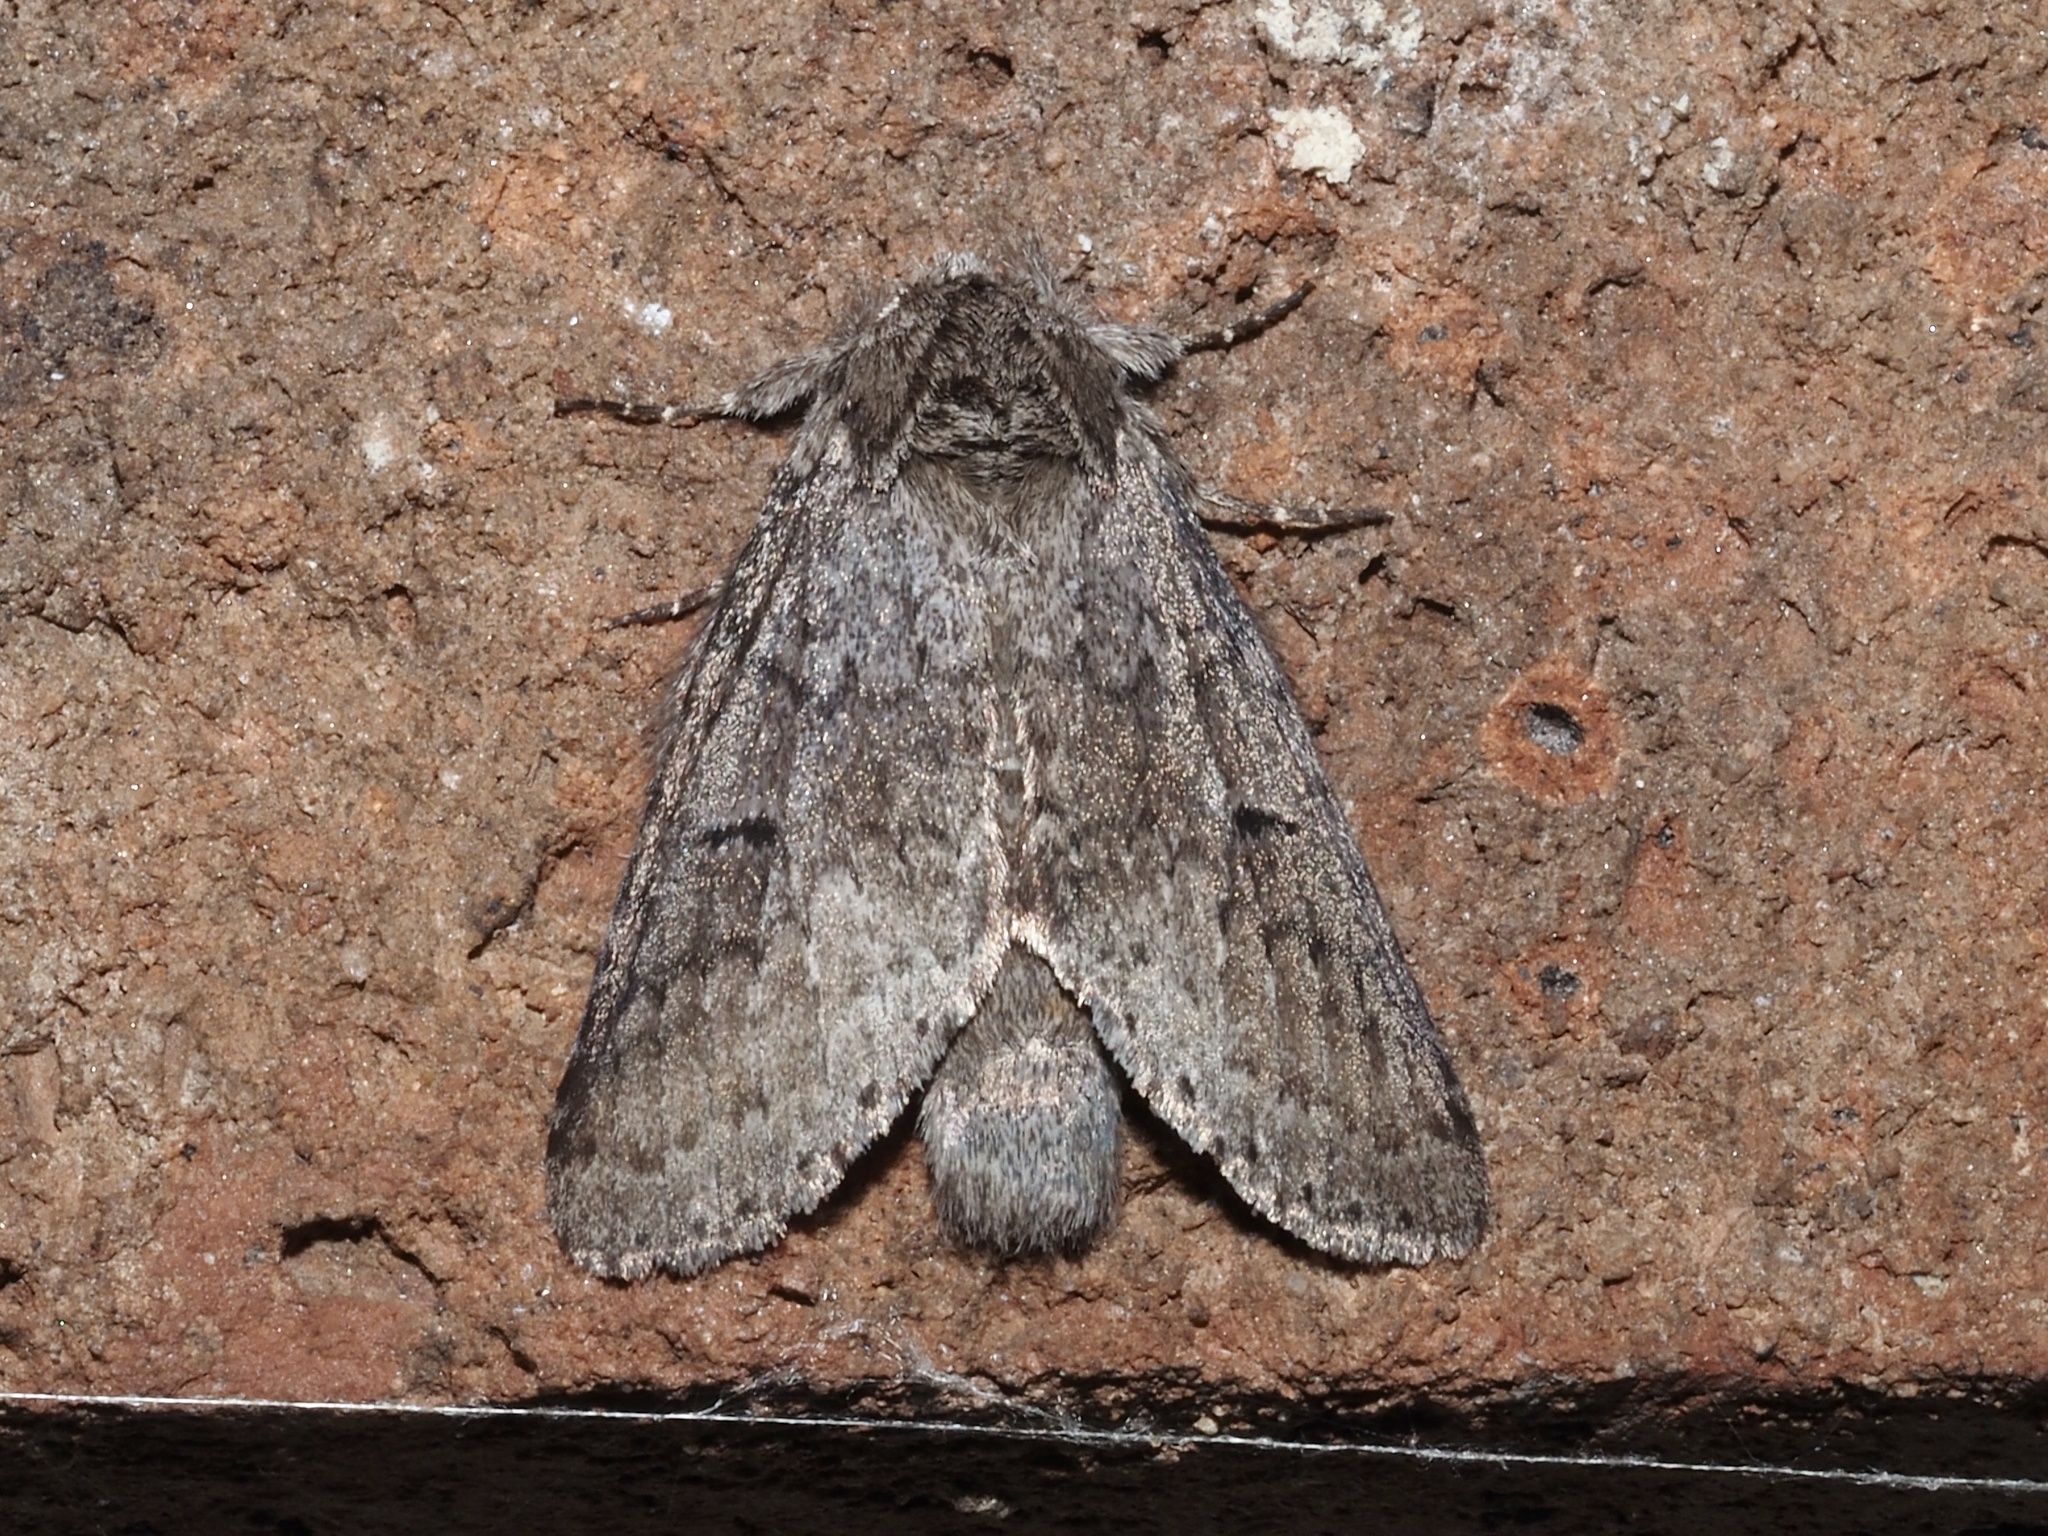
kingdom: Animalia
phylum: Arthropoda
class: Insecta
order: Lepidoptera
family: Notodontidae
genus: Lochmaeus
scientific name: Lochmaeus manteo
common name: Variable oakleaf caterpillar moth
